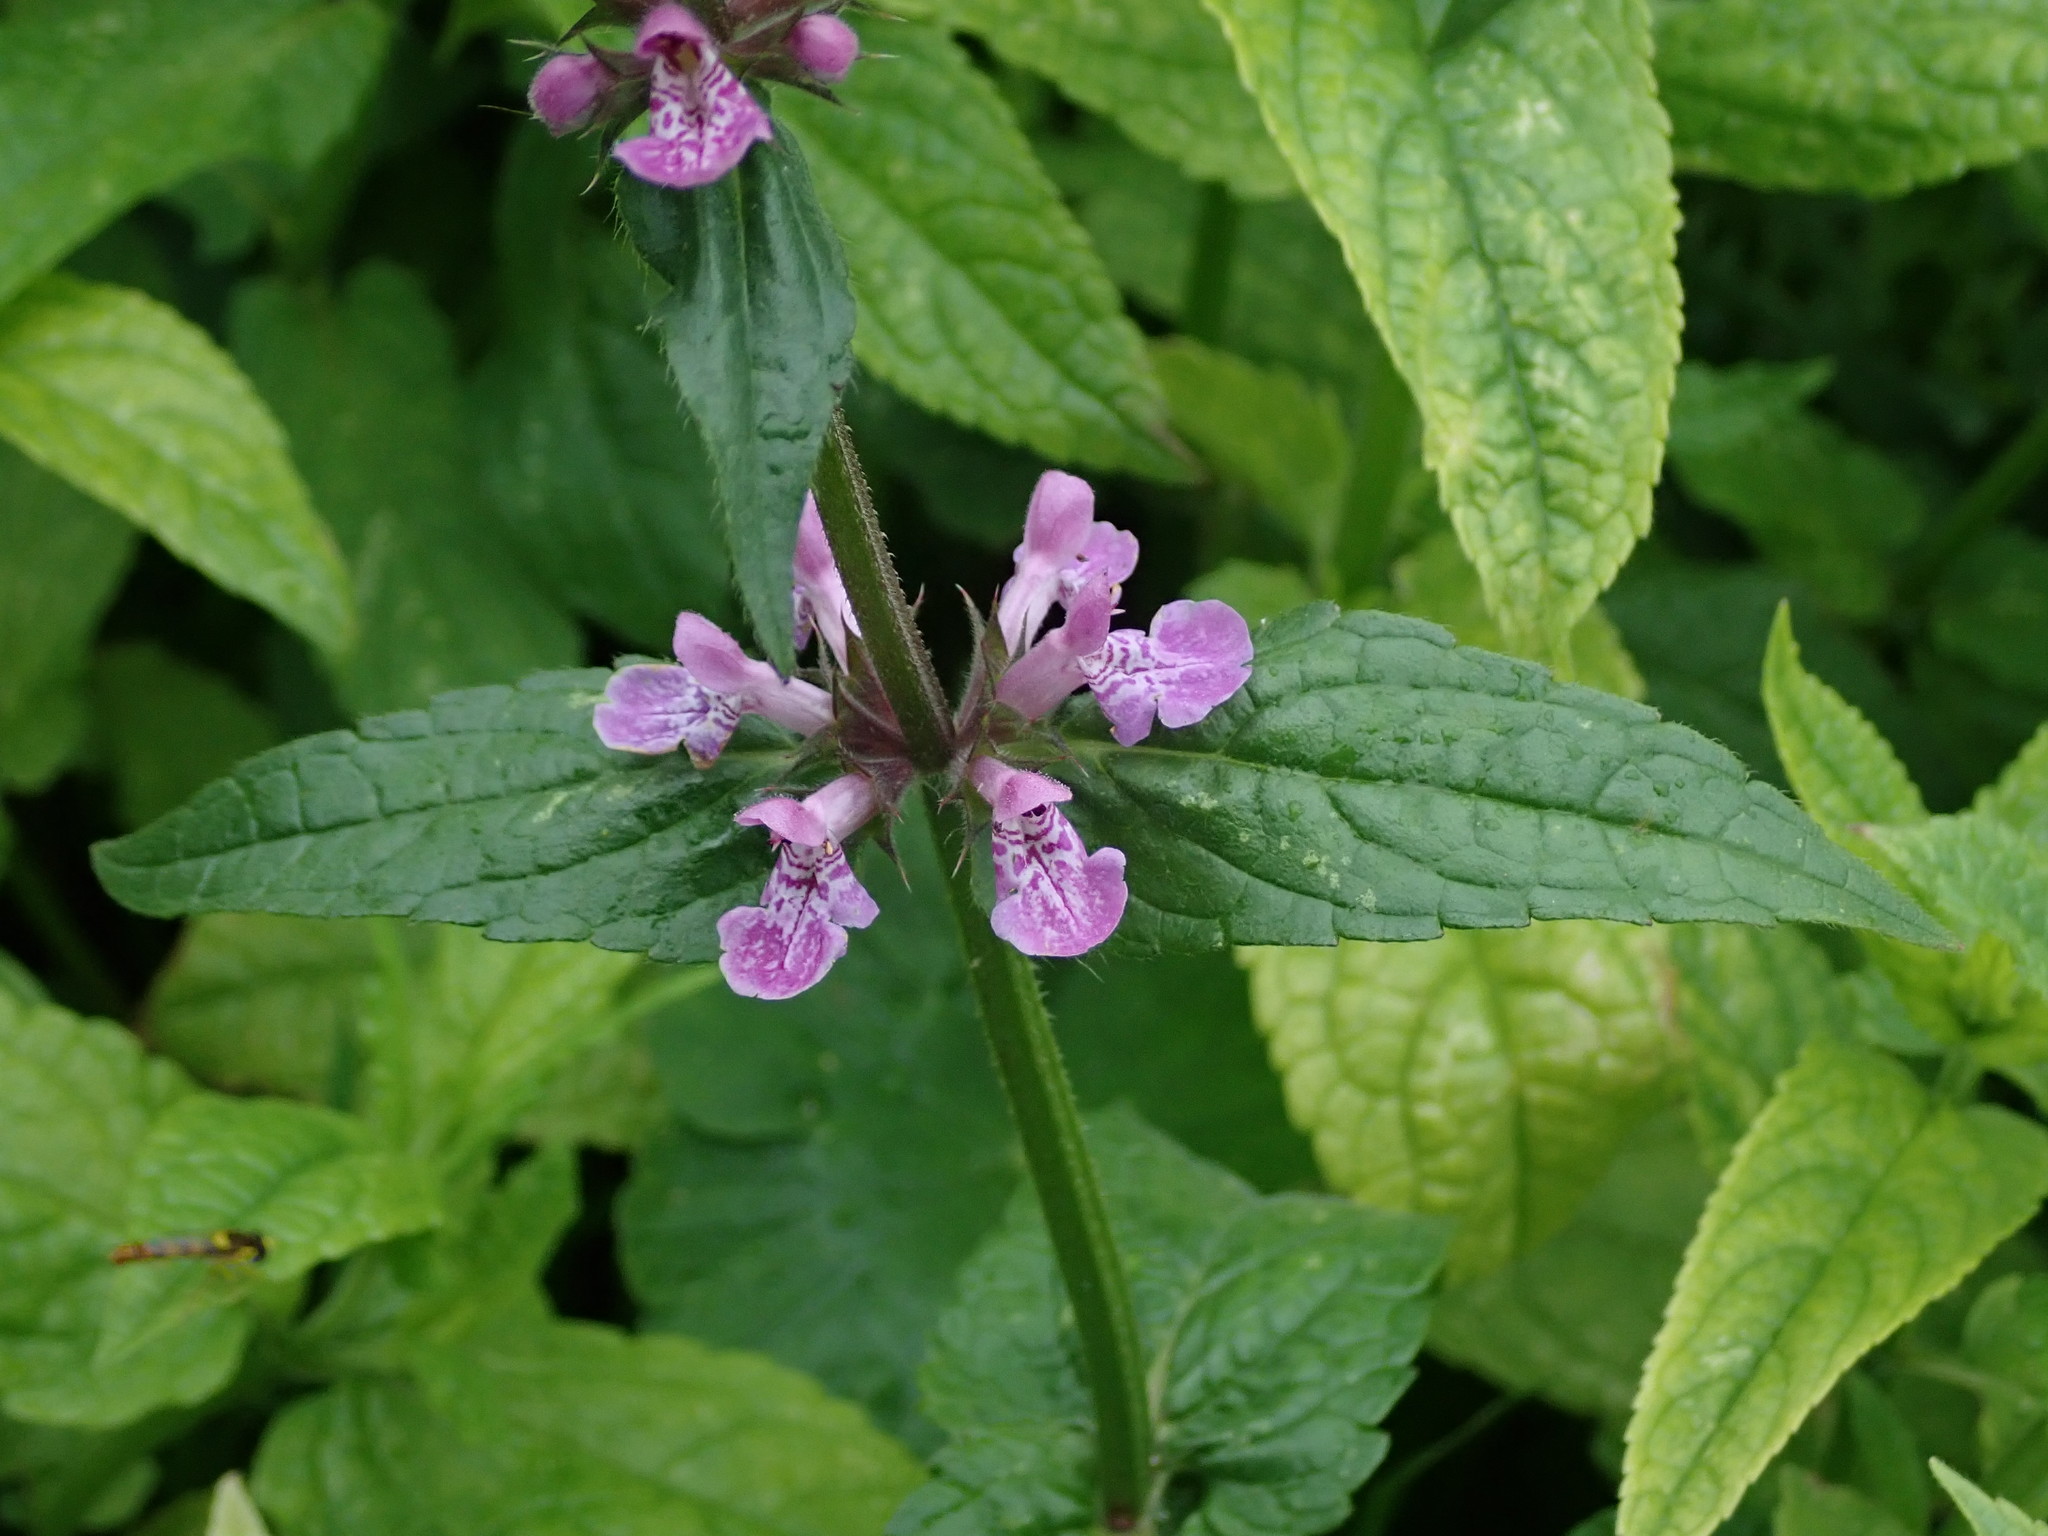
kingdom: Plantae
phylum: Tracheophyta
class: Magnoliopsida
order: Lamiales
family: Lamiaceae
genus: Stachys
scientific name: Stachys palustris
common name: Marsh woundwort
